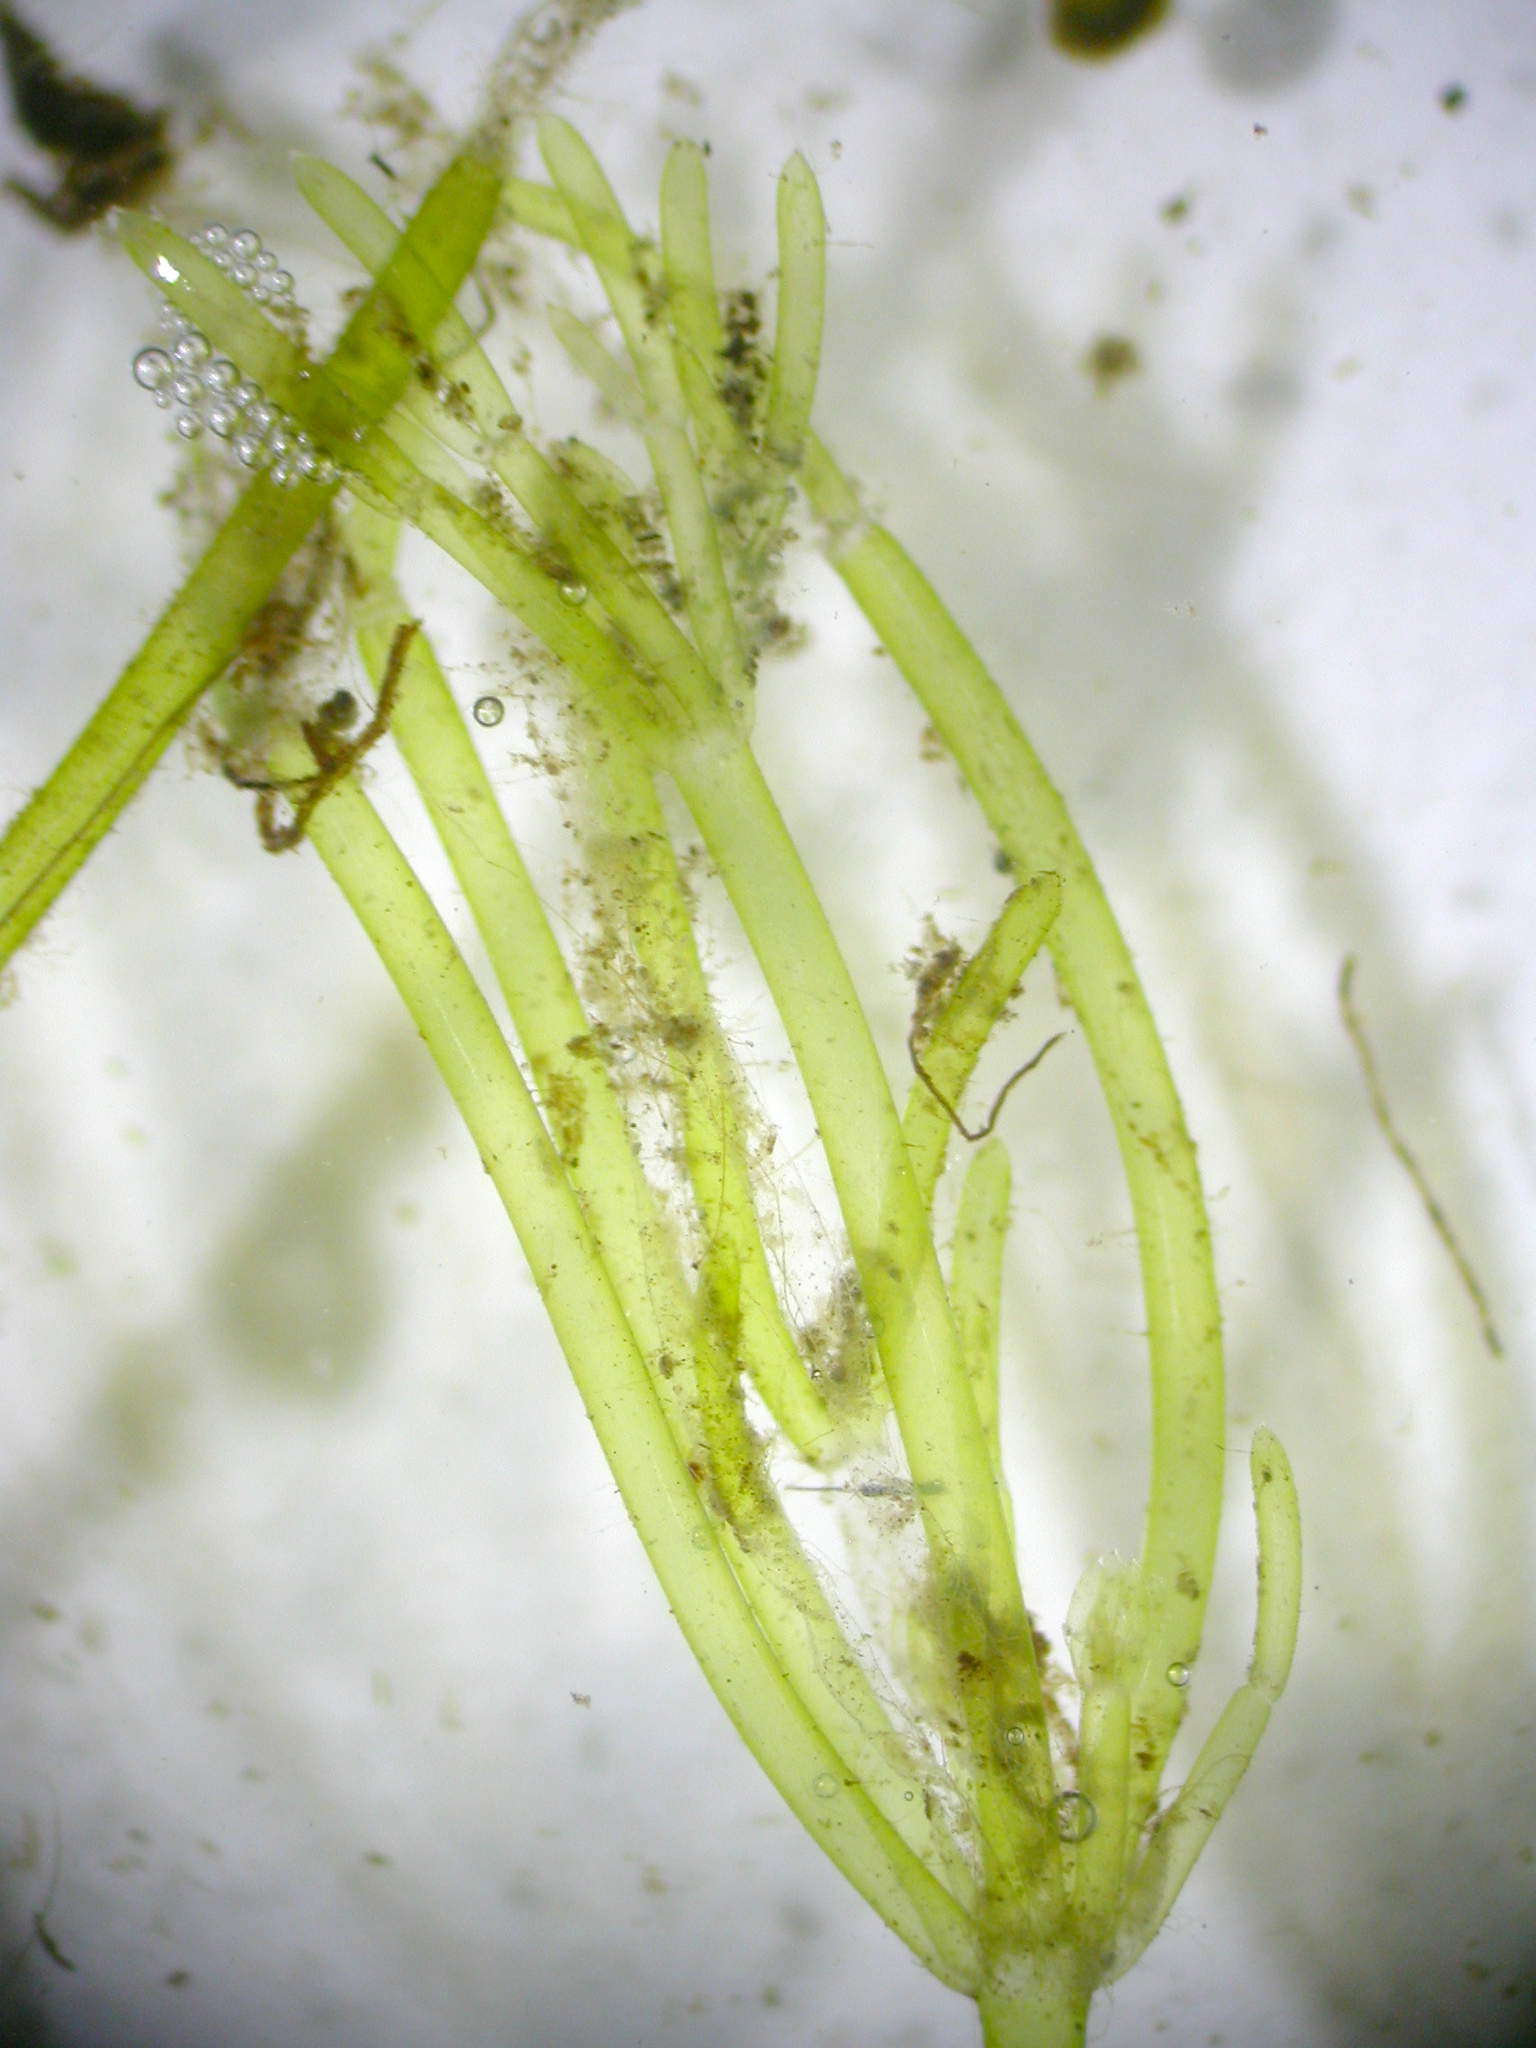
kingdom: Plantae
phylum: Charophyta
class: Charophyceae
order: Charales
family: Characeae
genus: Nitella
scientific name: Nitella
